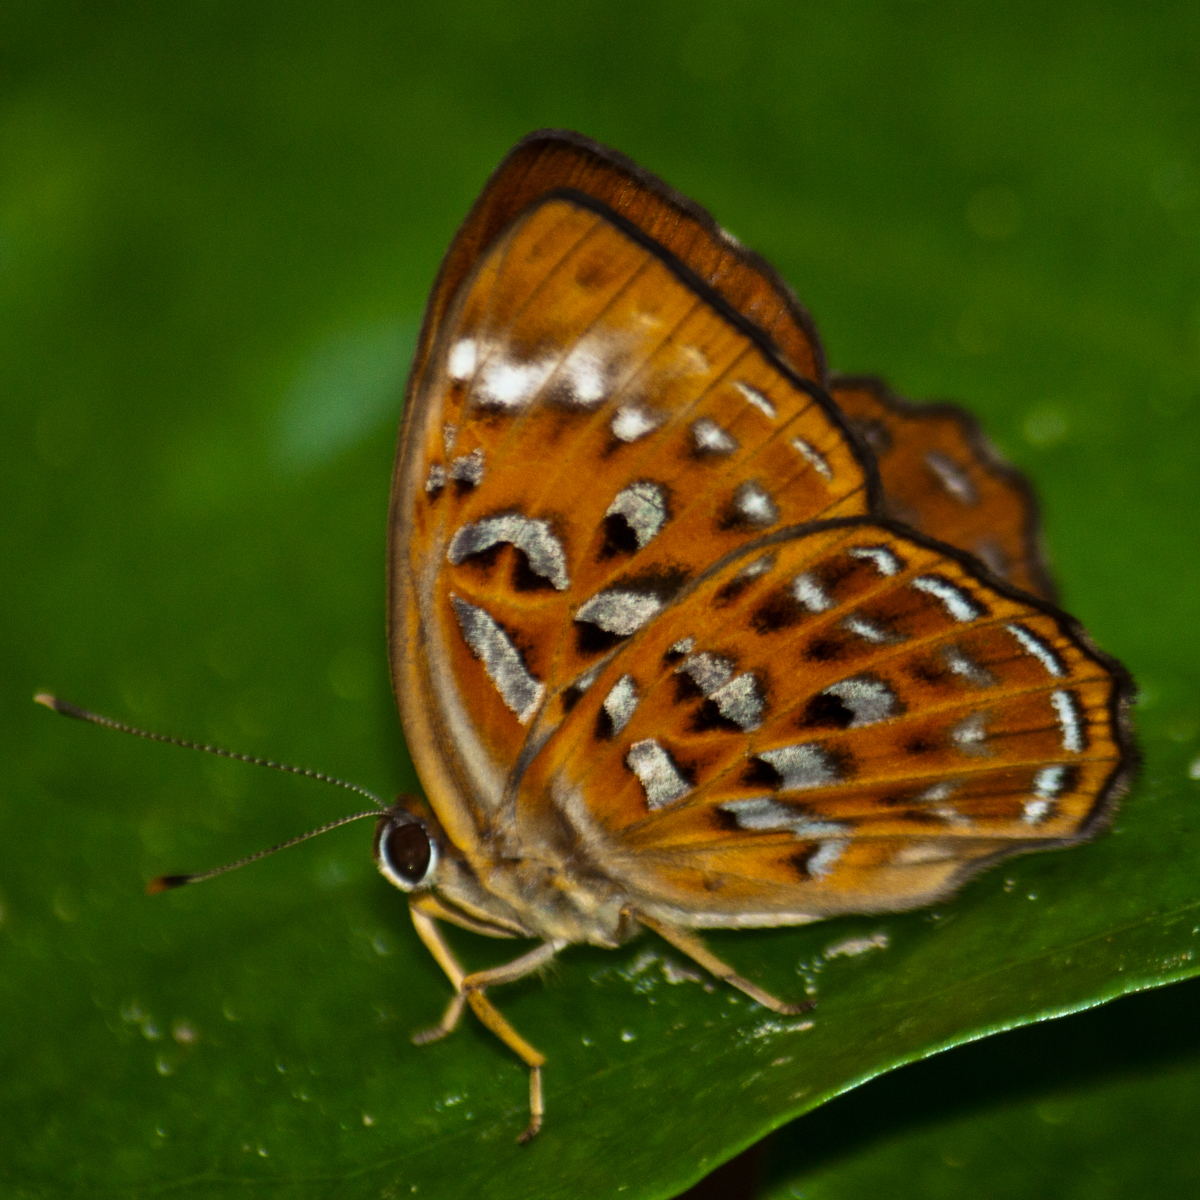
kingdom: Animalia
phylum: Arthropoda
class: Insecta
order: Lepidoptera
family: Erebidae
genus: Dysschema
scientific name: Dysschema
